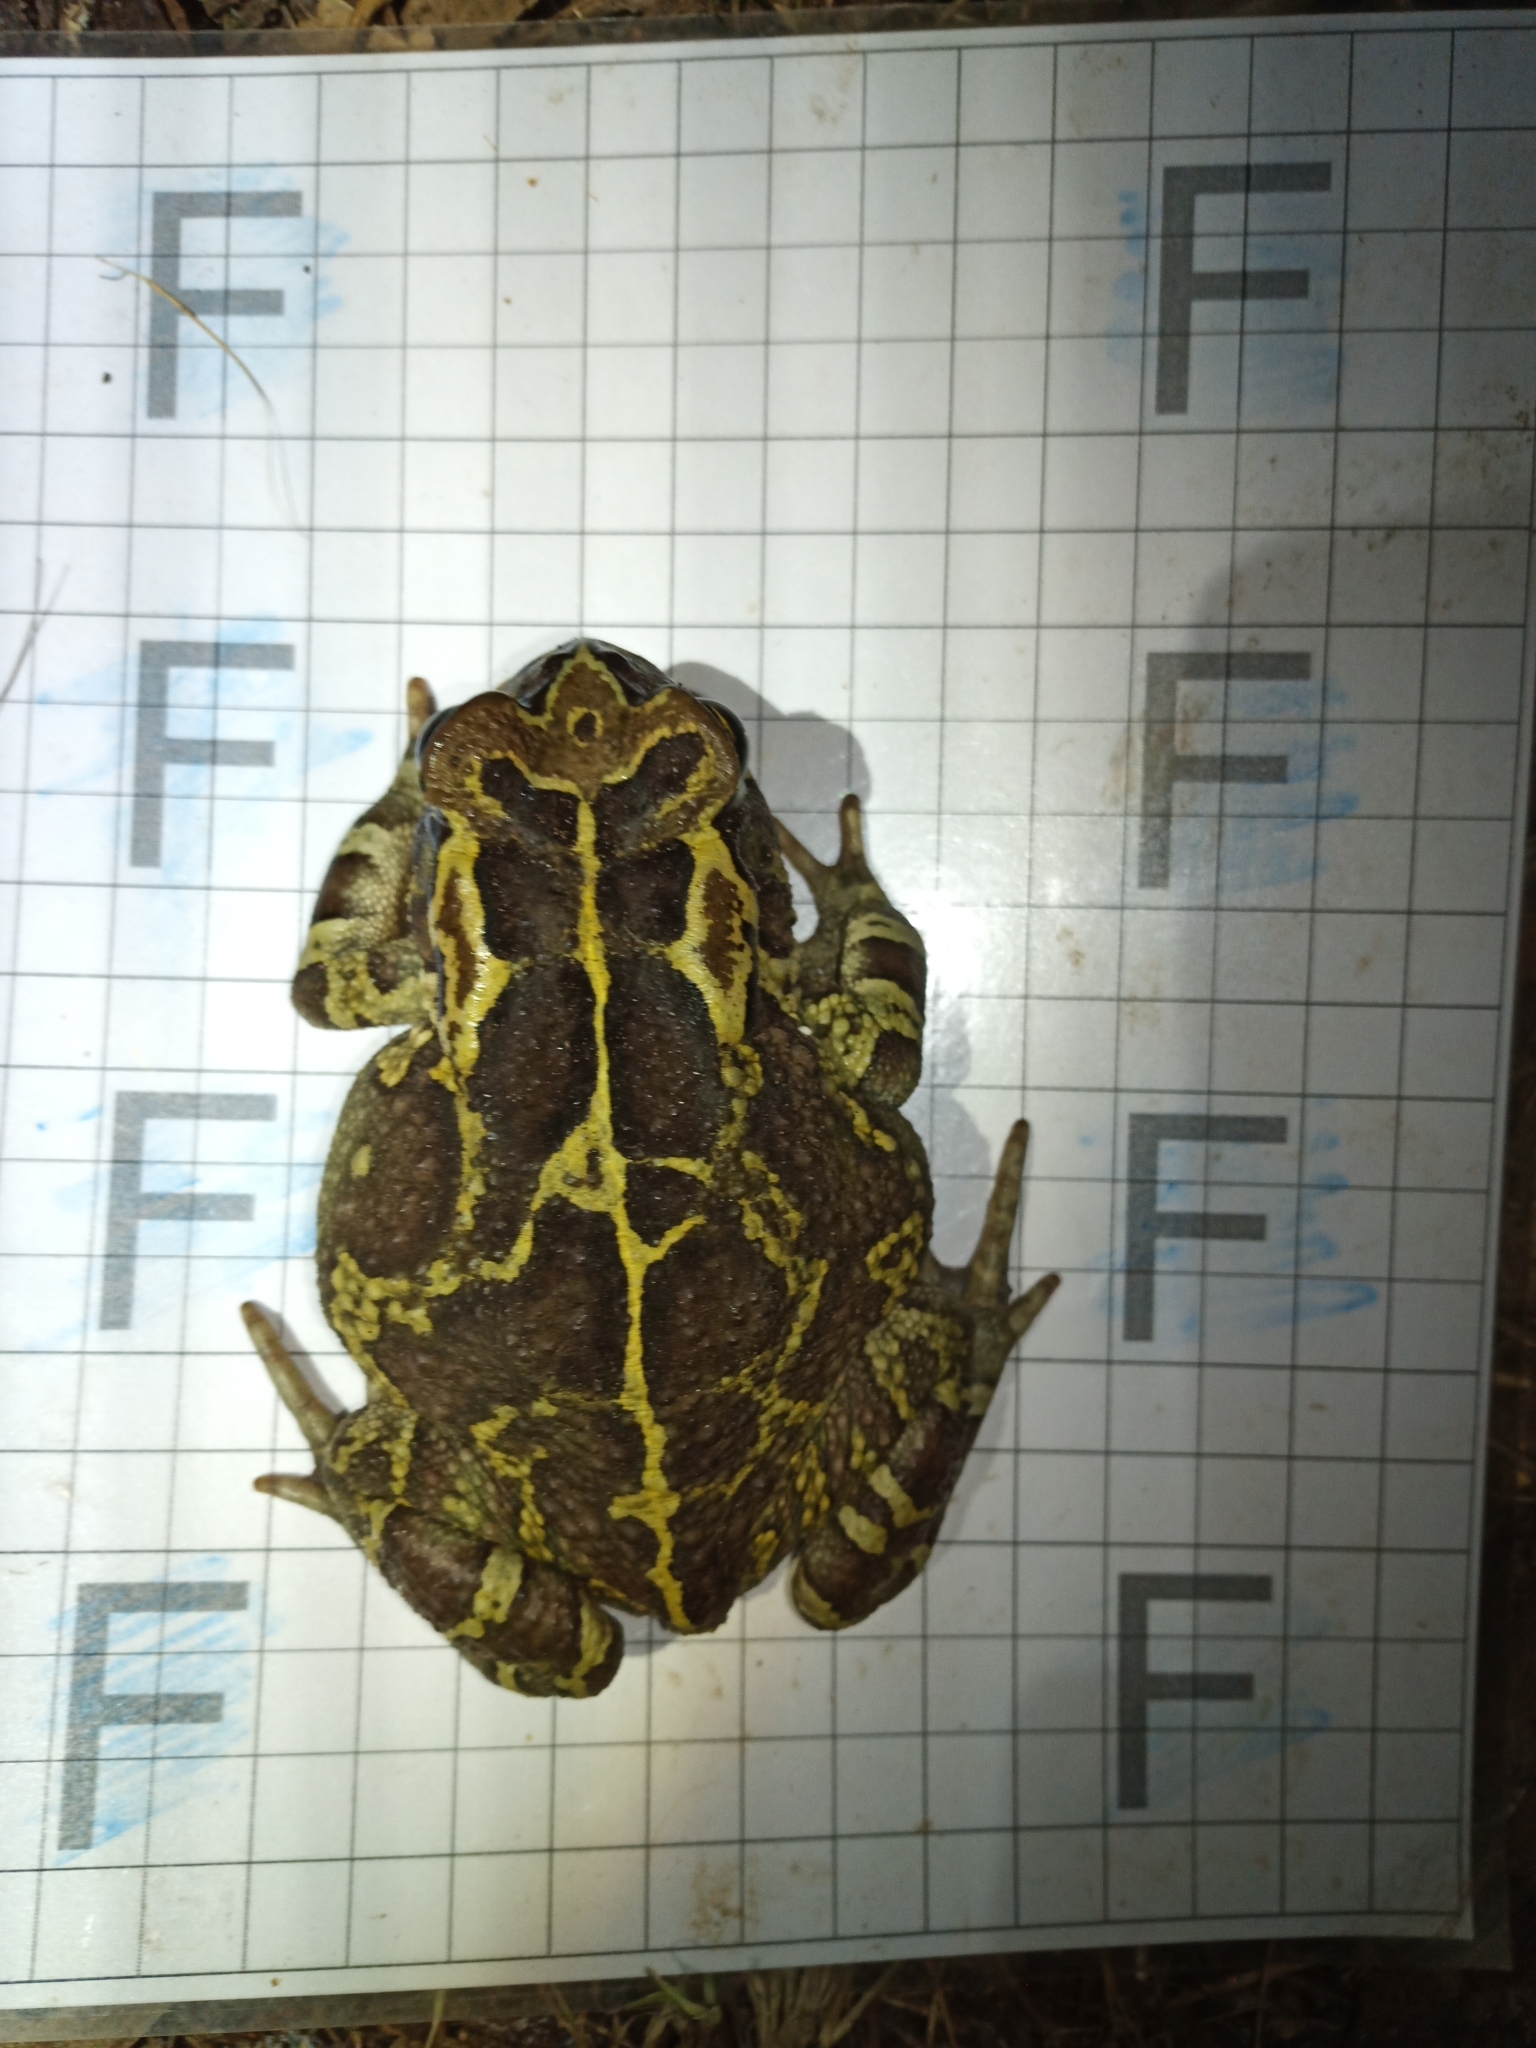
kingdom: Animalia
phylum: Chordata
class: Amphibia
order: Anura
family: Bufonidae
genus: Sclerophrys
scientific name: Sclerophrys pantherina
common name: Panther toad
